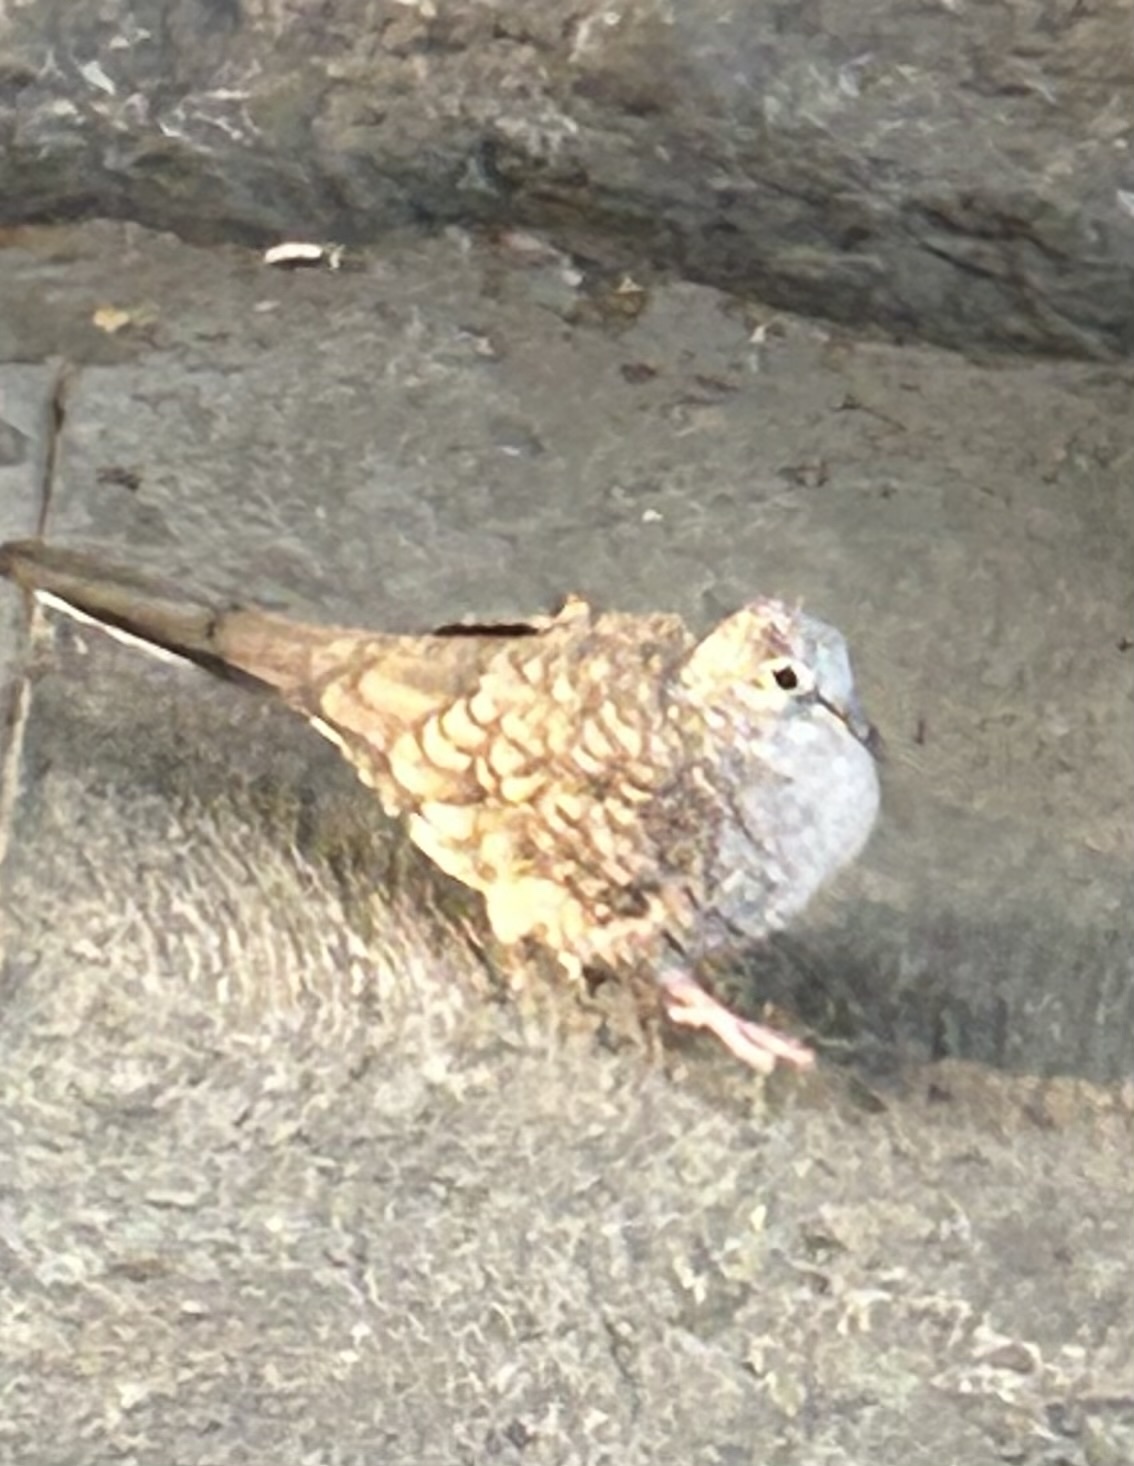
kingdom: Animalia
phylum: Chordata
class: Aves
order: Columbiformes
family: Columbidae
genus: Columbina
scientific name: Columbina inca
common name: Inca dove
